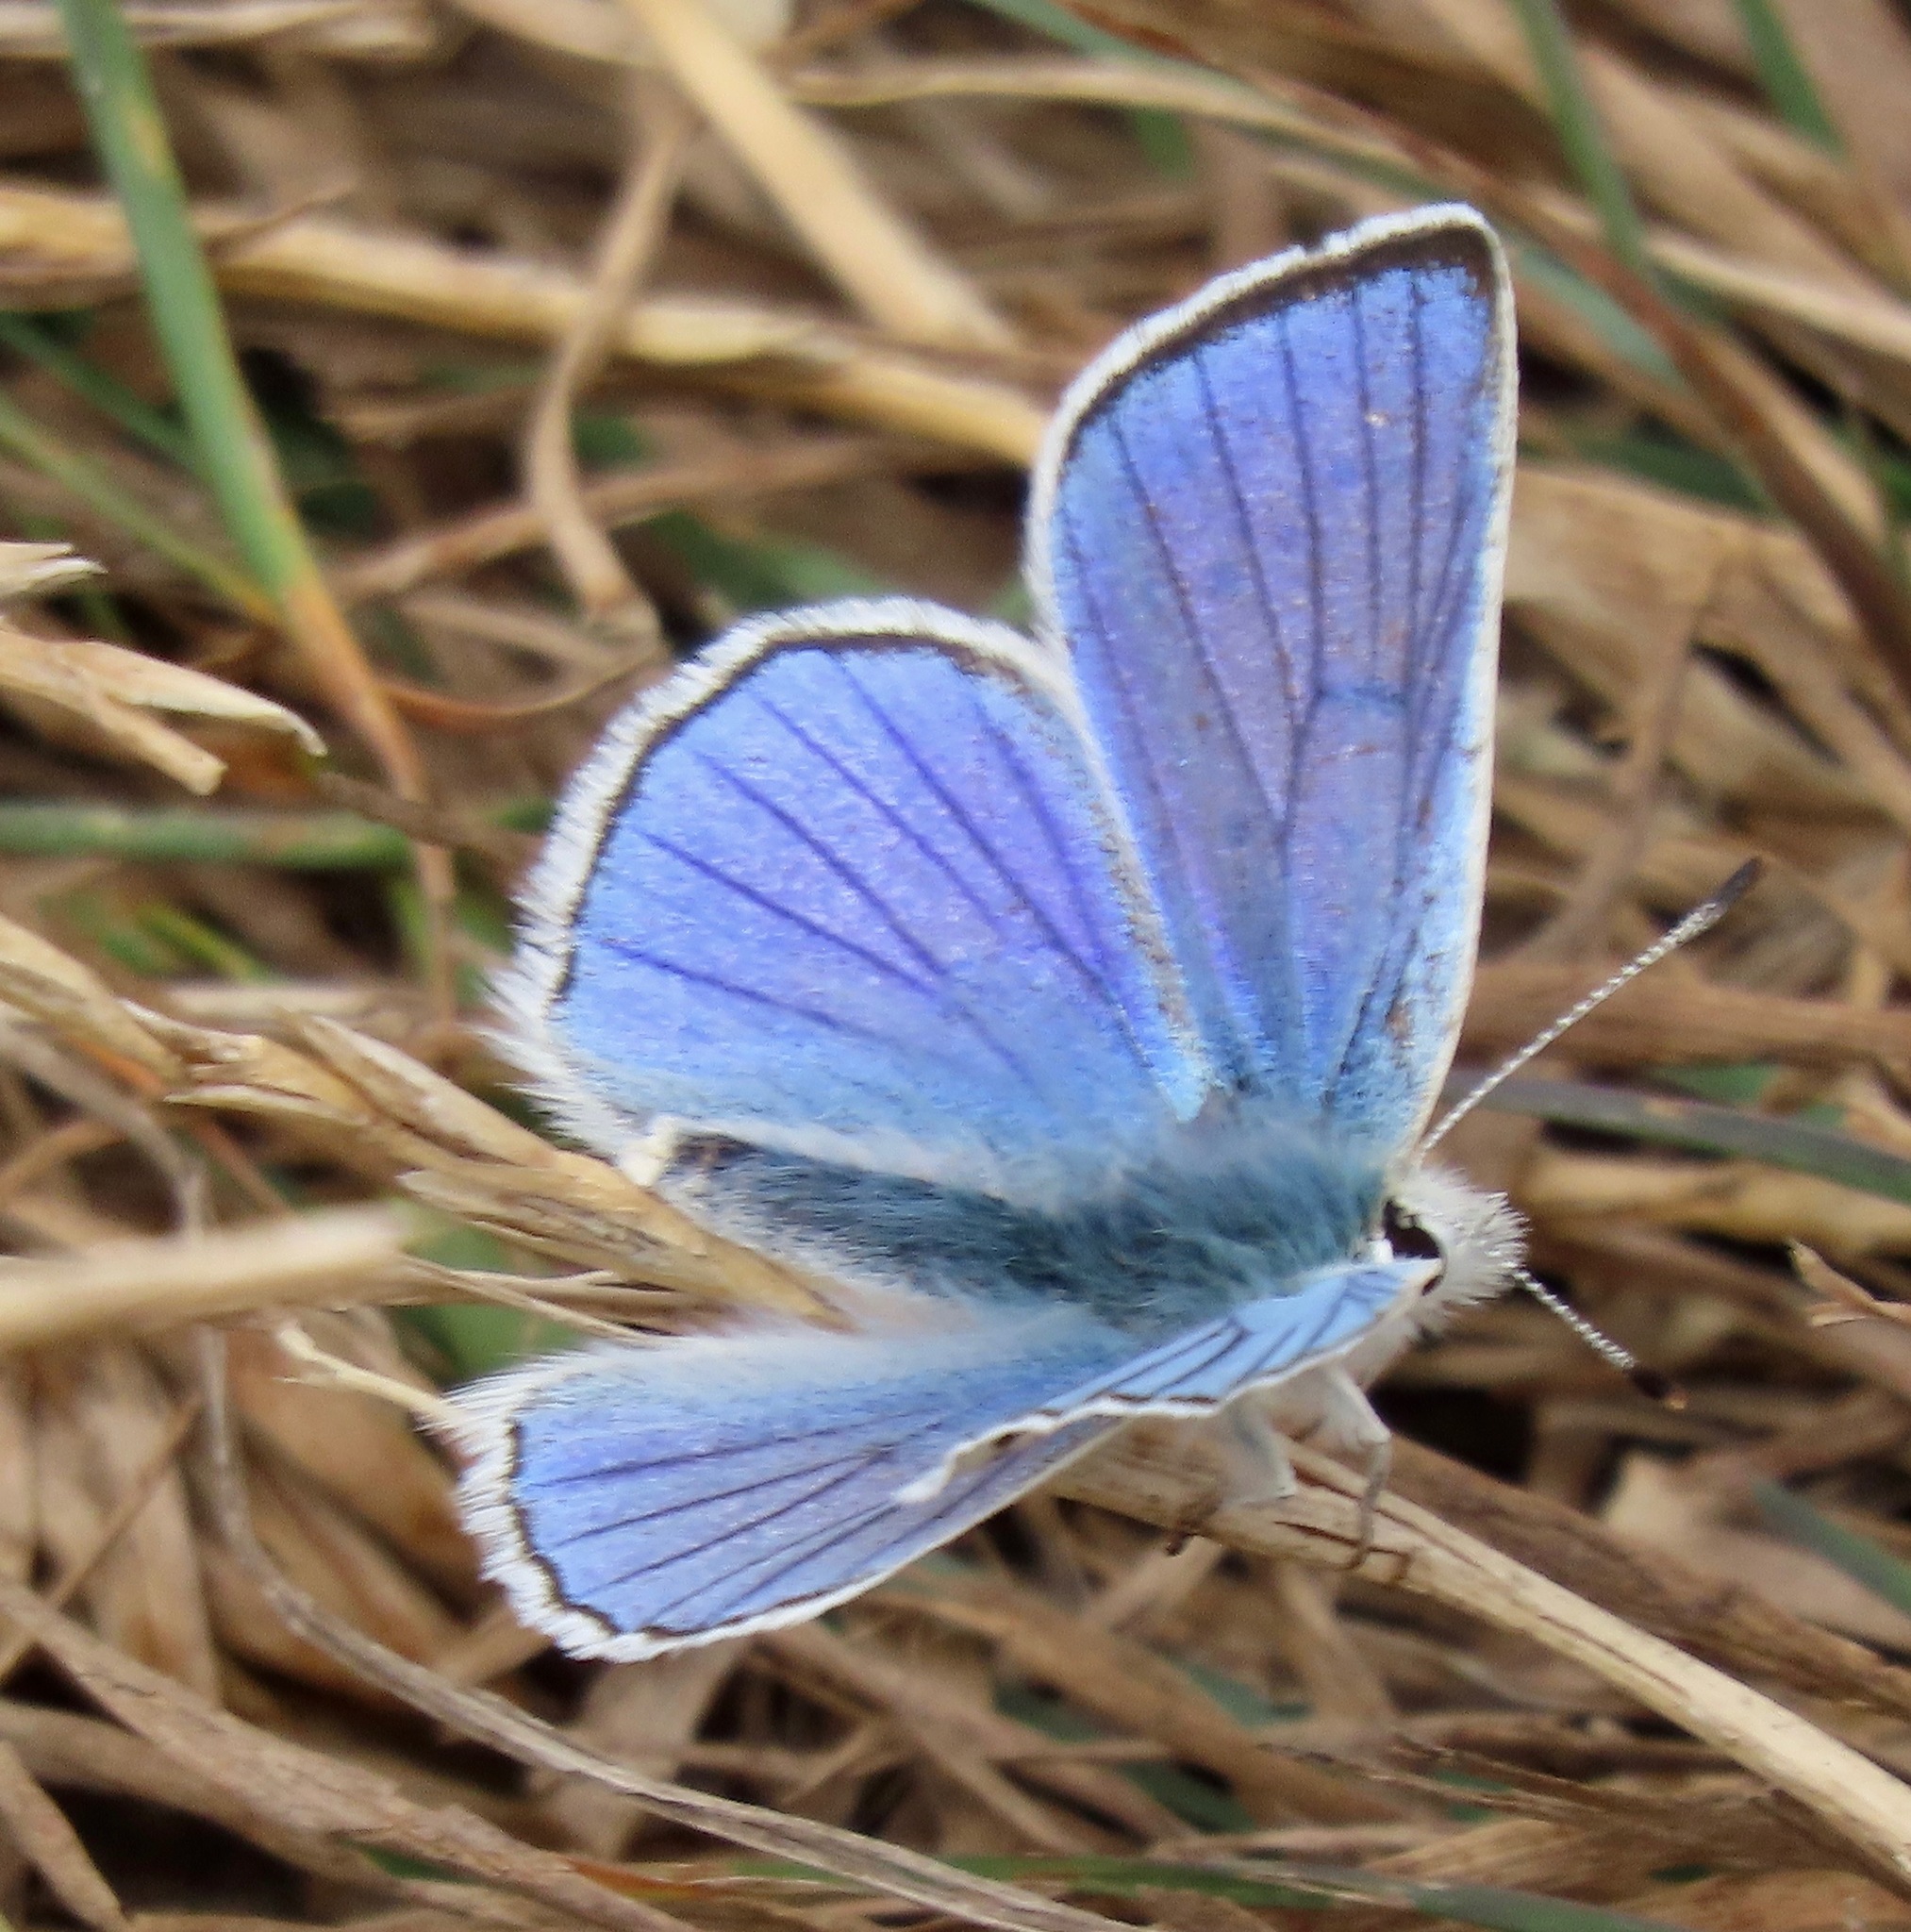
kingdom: Animalia
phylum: Arthropoda
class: Insecta
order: Lepidoptera
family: Lycaenidae
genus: Tharsalea
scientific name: Tharsalea heteronea
